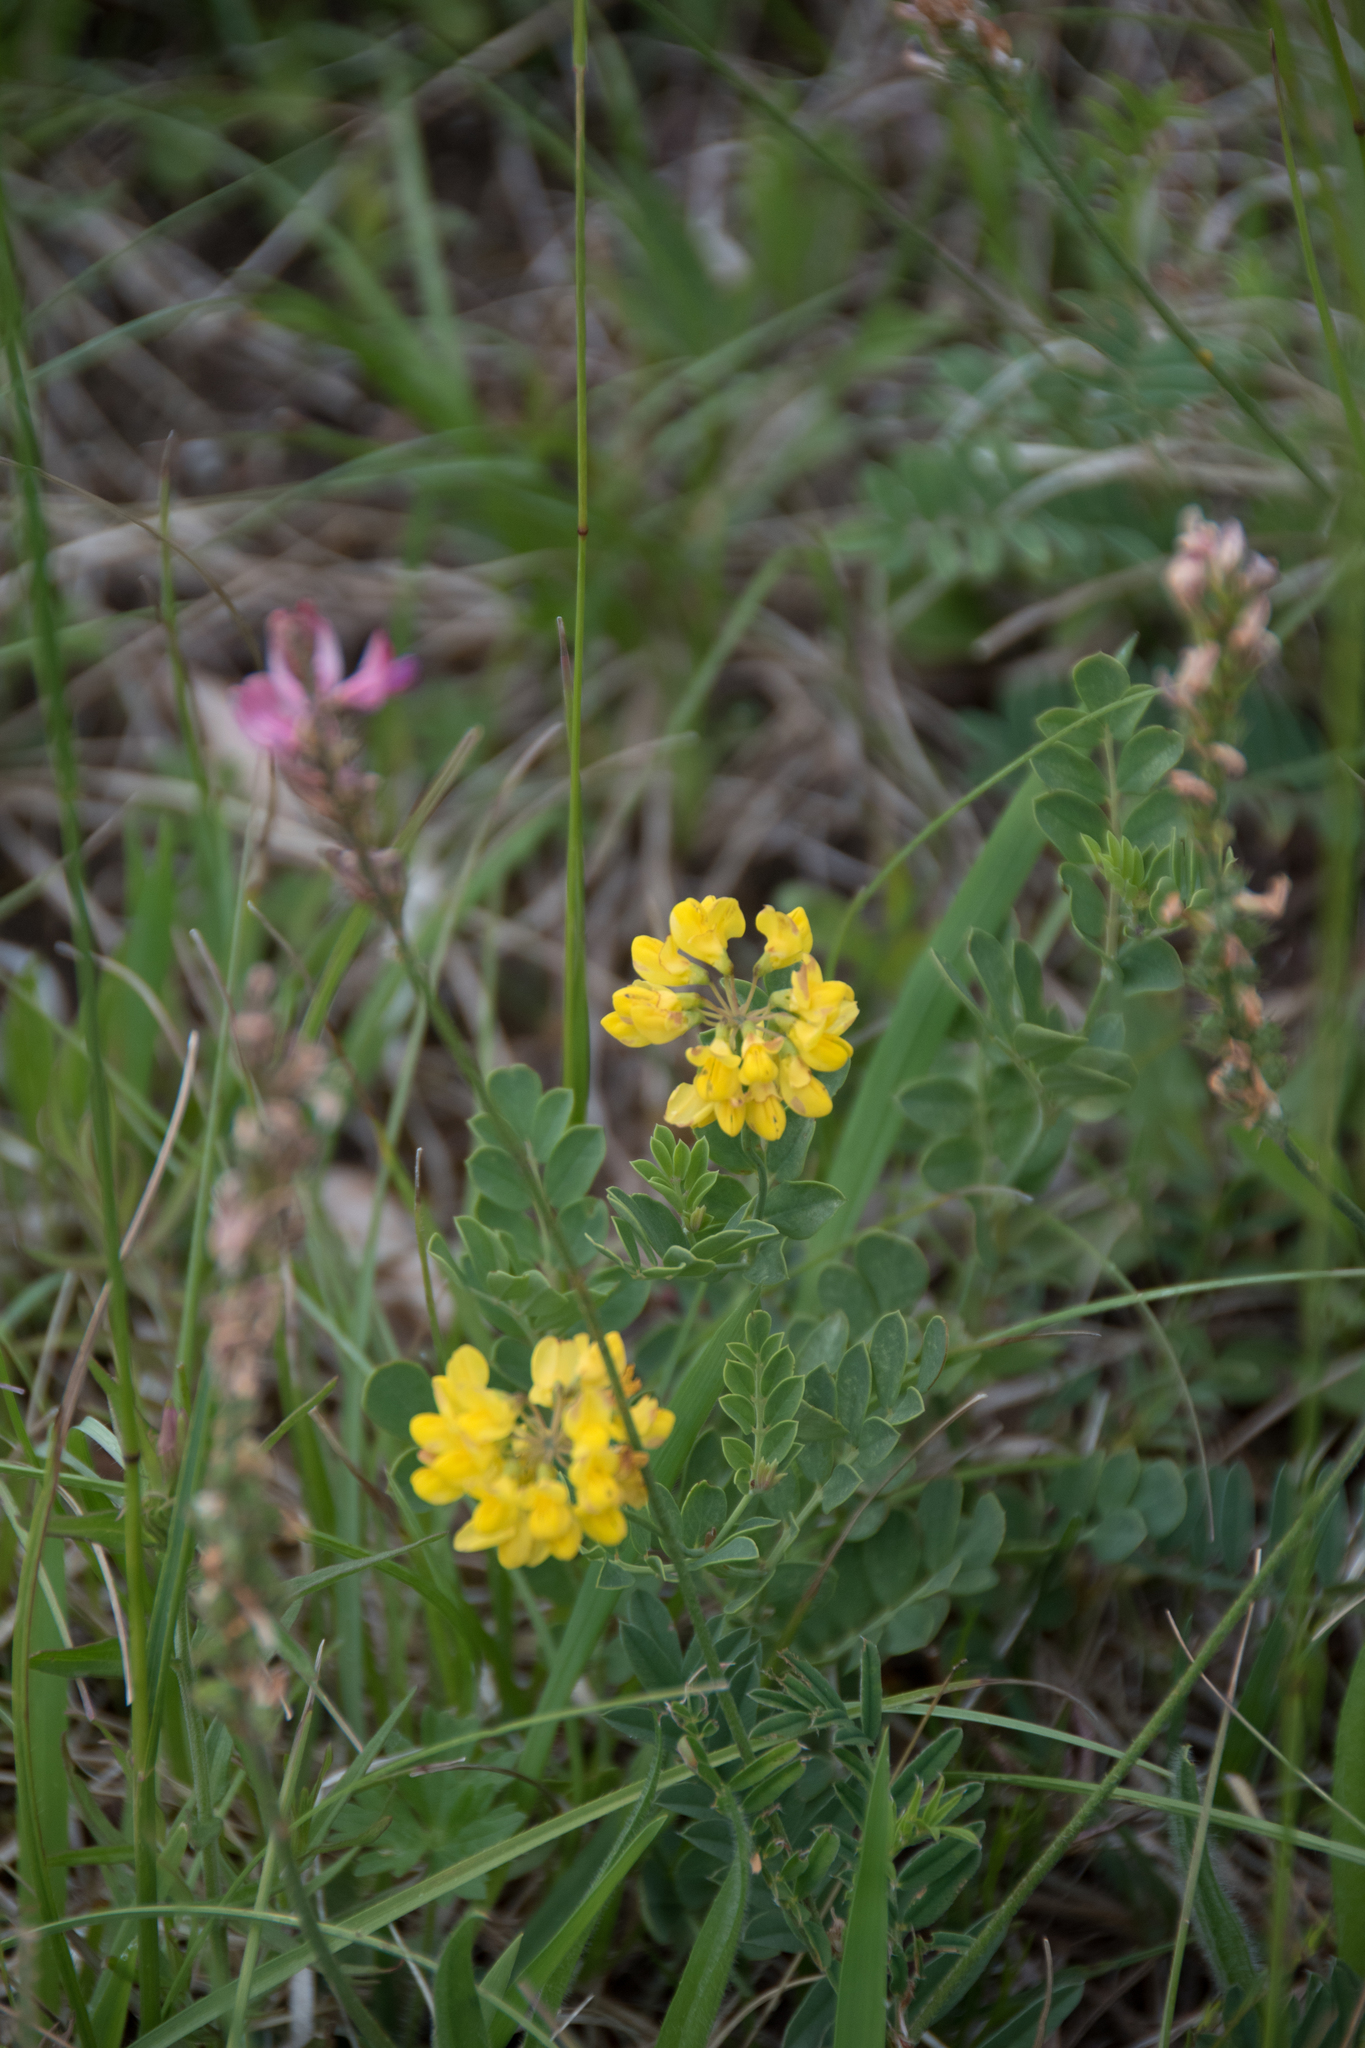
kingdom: Plantae
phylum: Tracheophyta
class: Magnoliopsida
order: Fabales
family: Fabaceae
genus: Hippocrepis
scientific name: Hippocrepis comosa
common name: Horseshoe vetch
